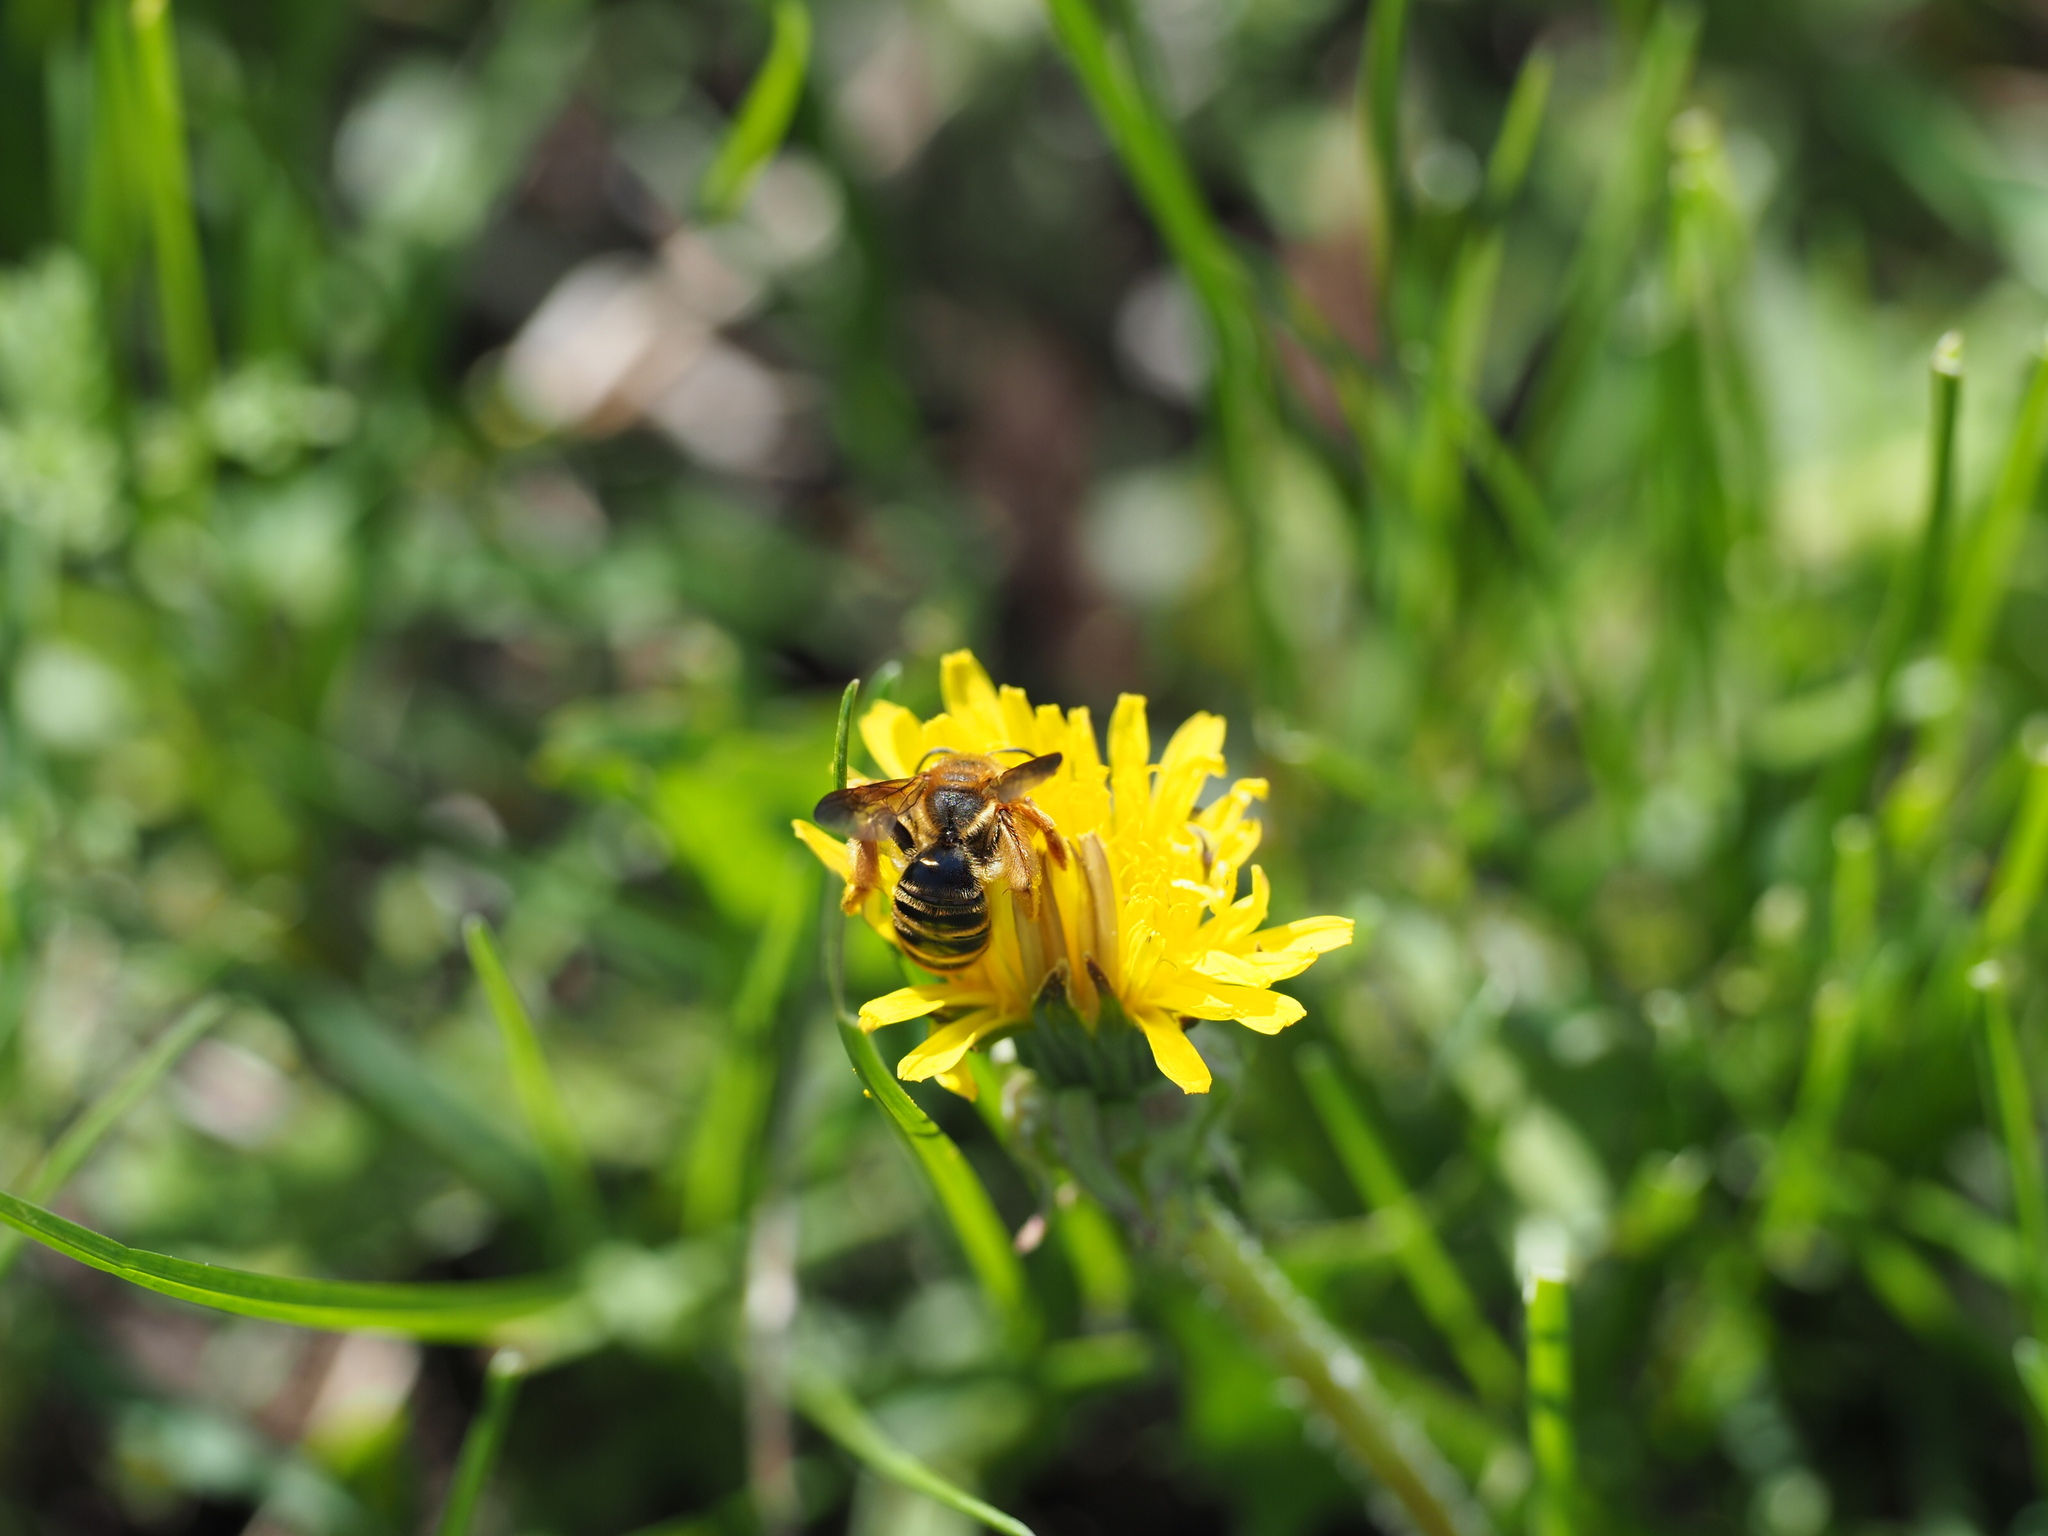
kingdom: Animalia
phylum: Arthropoda
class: Insecta
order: Hymenoptera
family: Andrenidae
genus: Andrena
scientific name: Andrena prunorum
